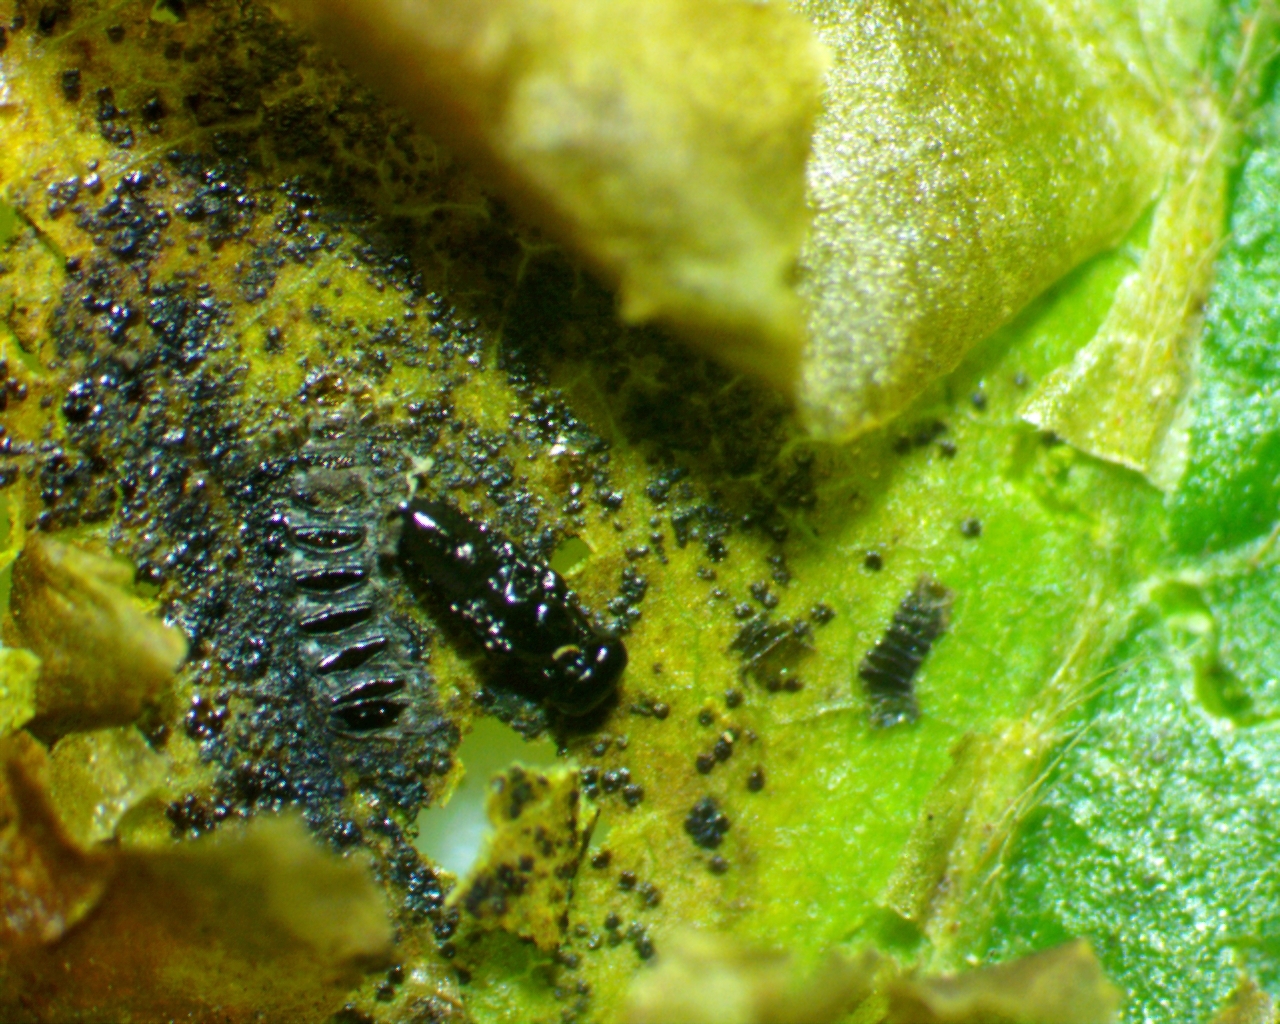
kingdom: Animalia
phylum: Arthropoda
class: Insecta
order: Lepidoptera
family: Gracillariidae
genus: Cameraria
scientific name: Cameraria corylisella
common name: Hazel blotchminer
